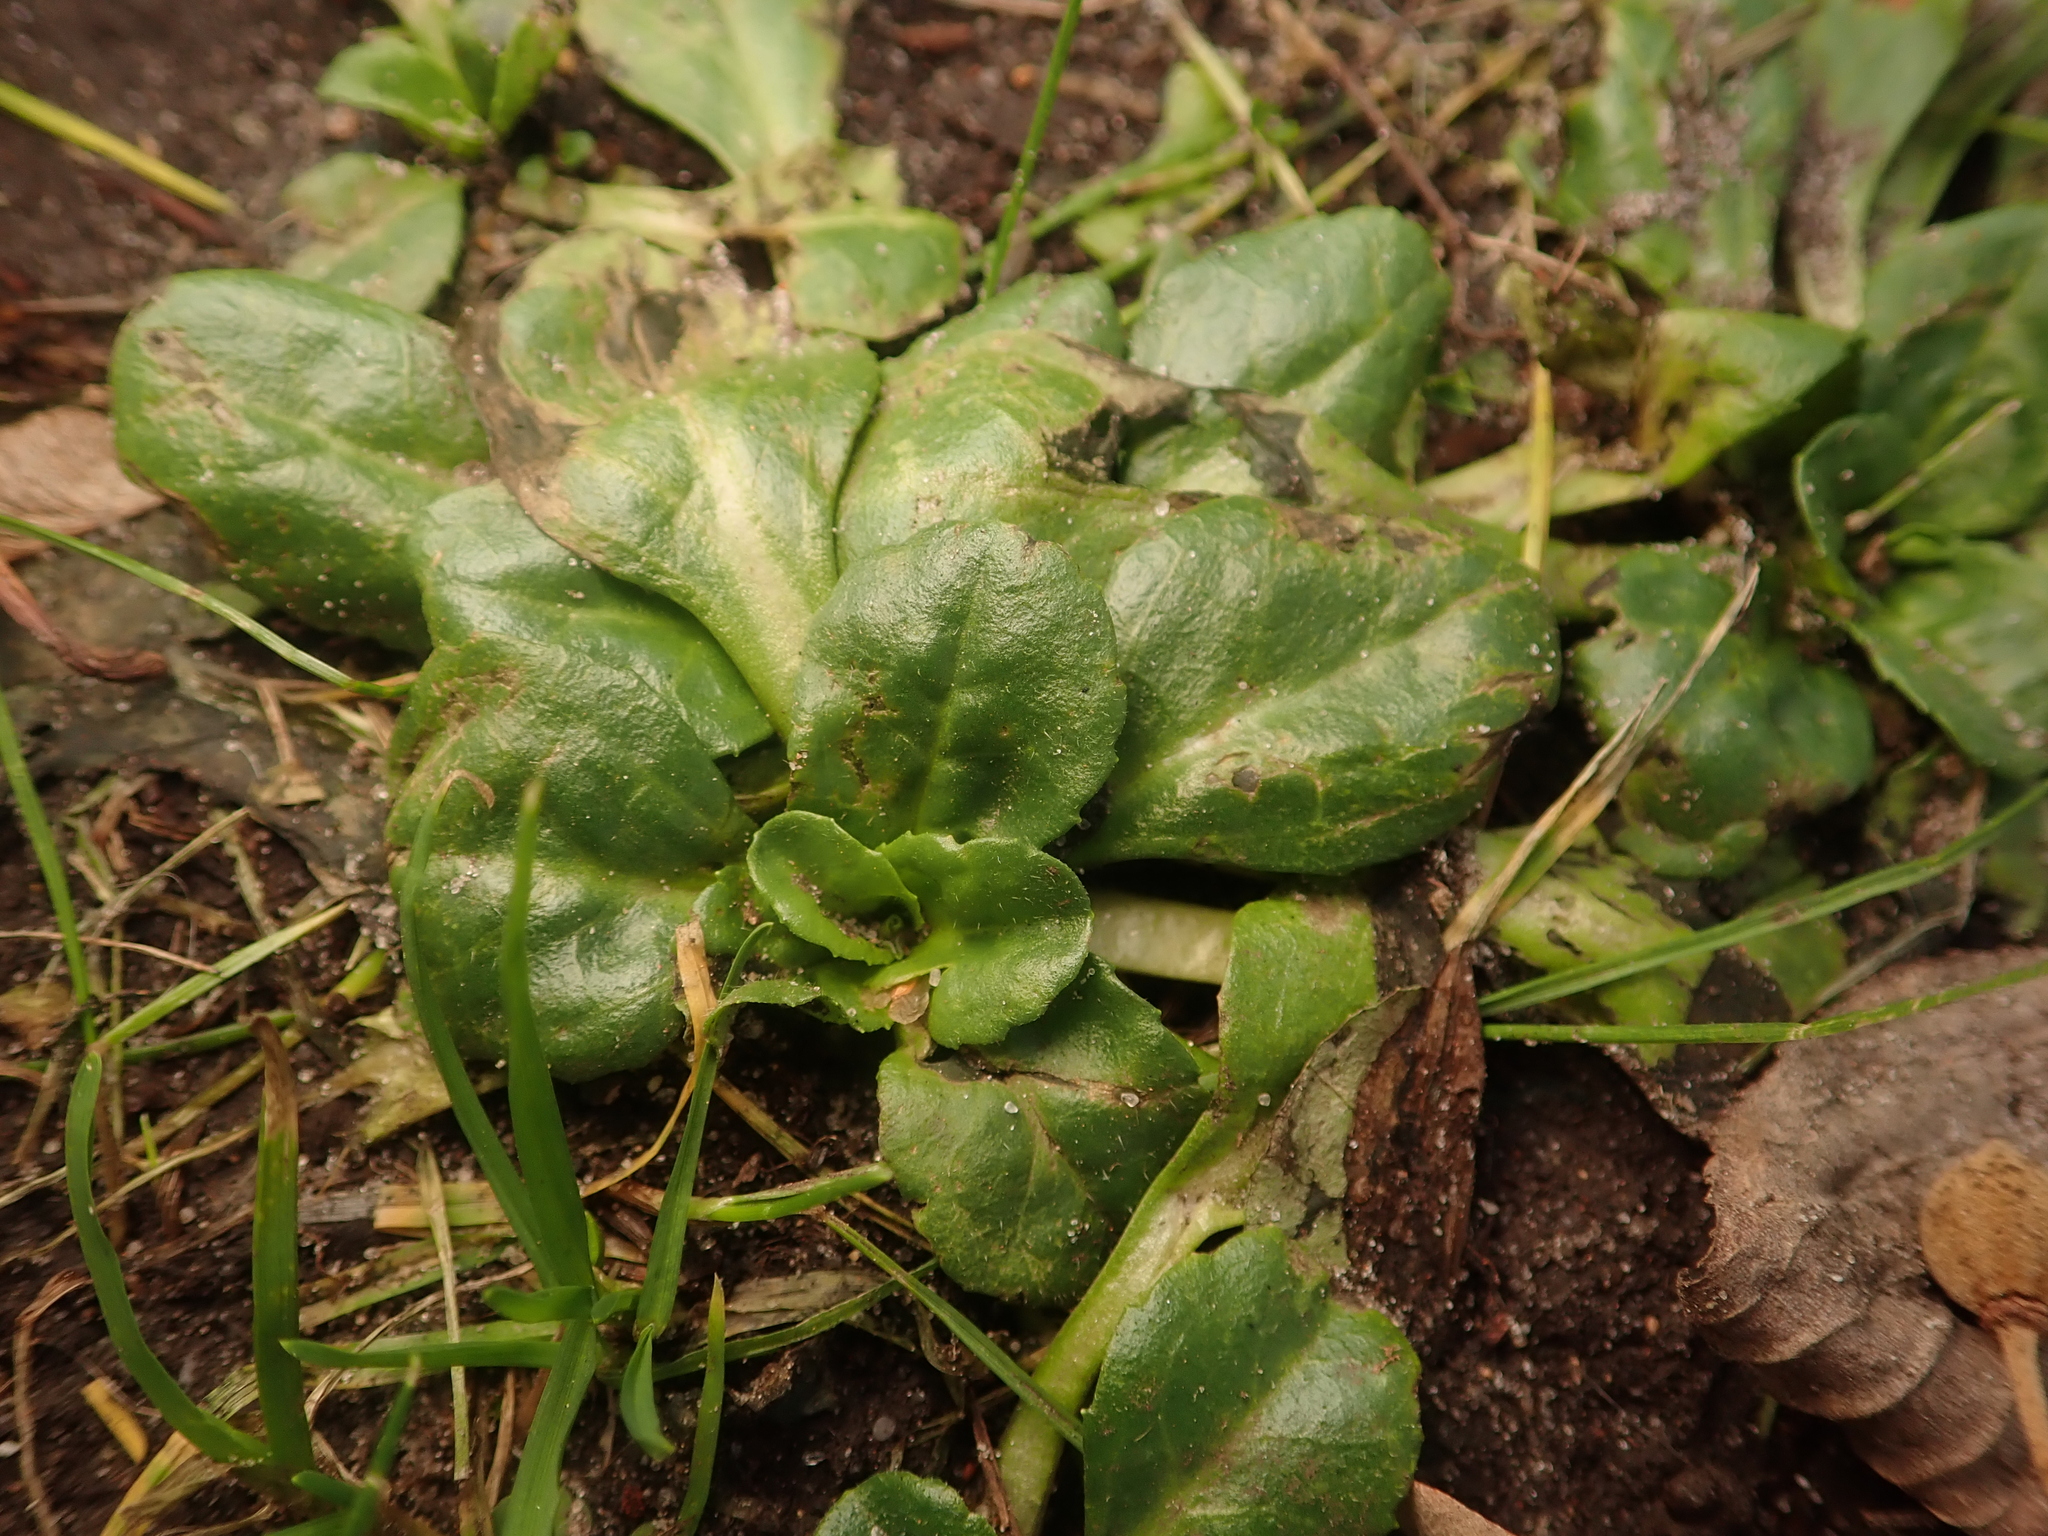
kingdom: Plantae
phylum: Tracheophyta
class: Magnoliopsida
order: Asterales
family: Asteraceae
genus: Bellis
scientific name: Bellis perennis
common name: Lawndaisy
